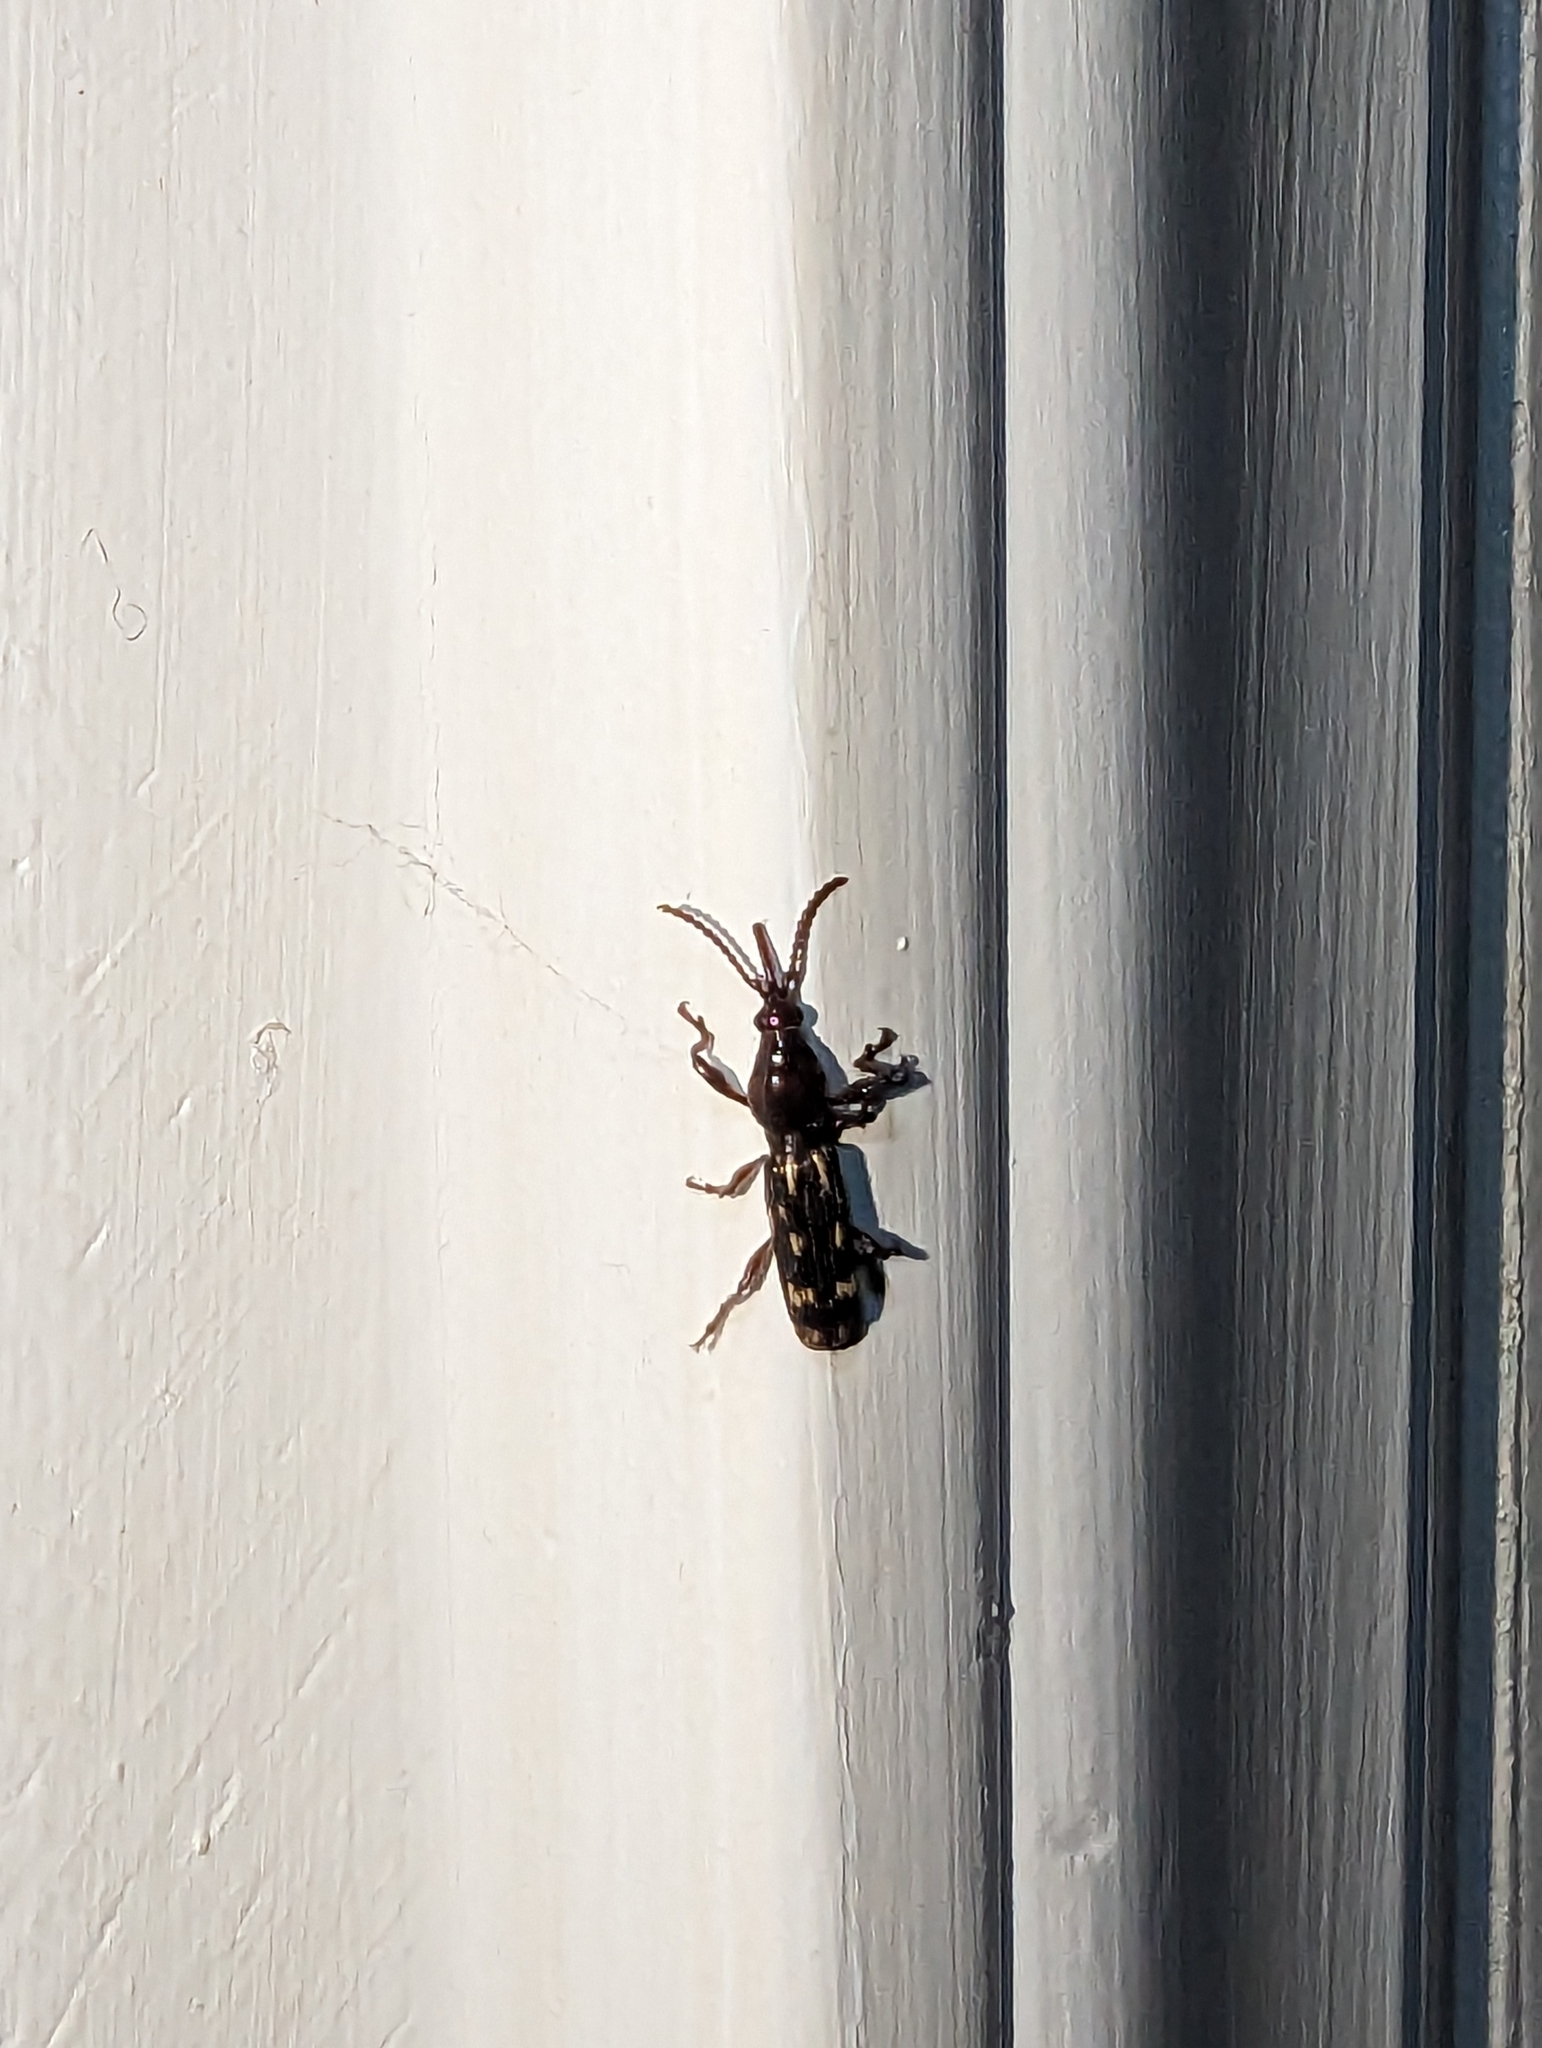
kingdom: Animalia
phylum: Arthropoda
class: Insecta
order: Coleoptera
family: Brentidae
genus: Arrenodes
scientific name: Arrenodes minutus
